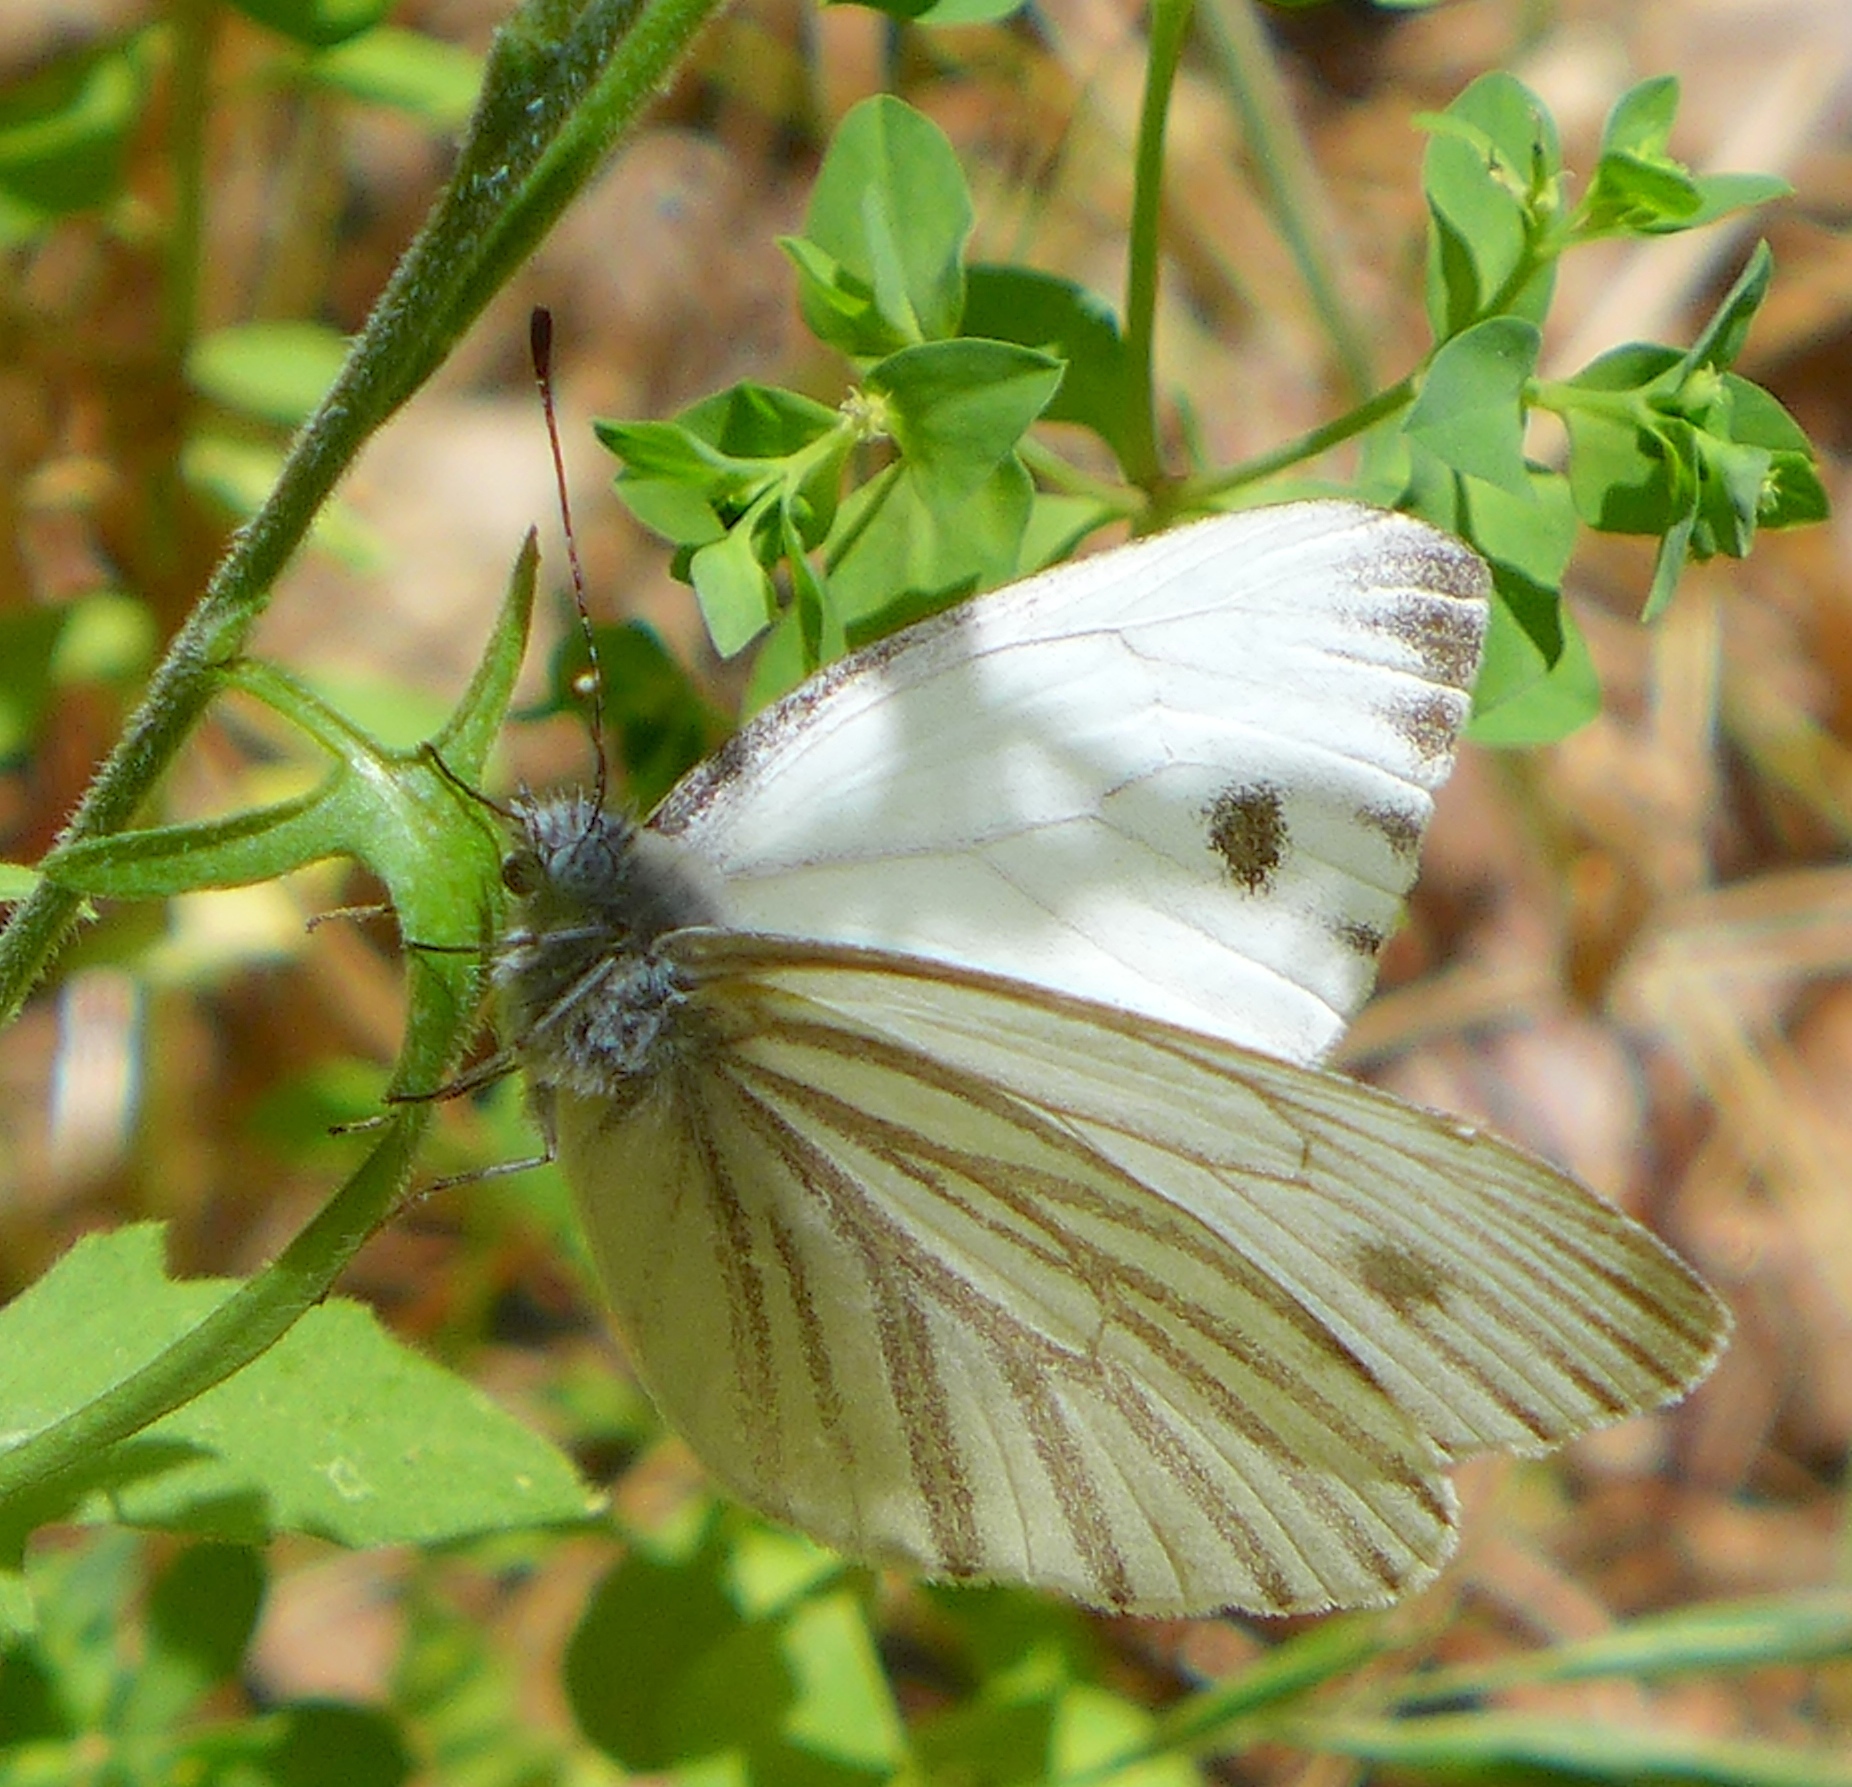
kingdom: Animalia
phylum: Arthropoda
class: Insecta
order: Lepidoptera
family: Pieridae
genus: Pieris
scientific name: Pieris marginalis
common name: Margined white
